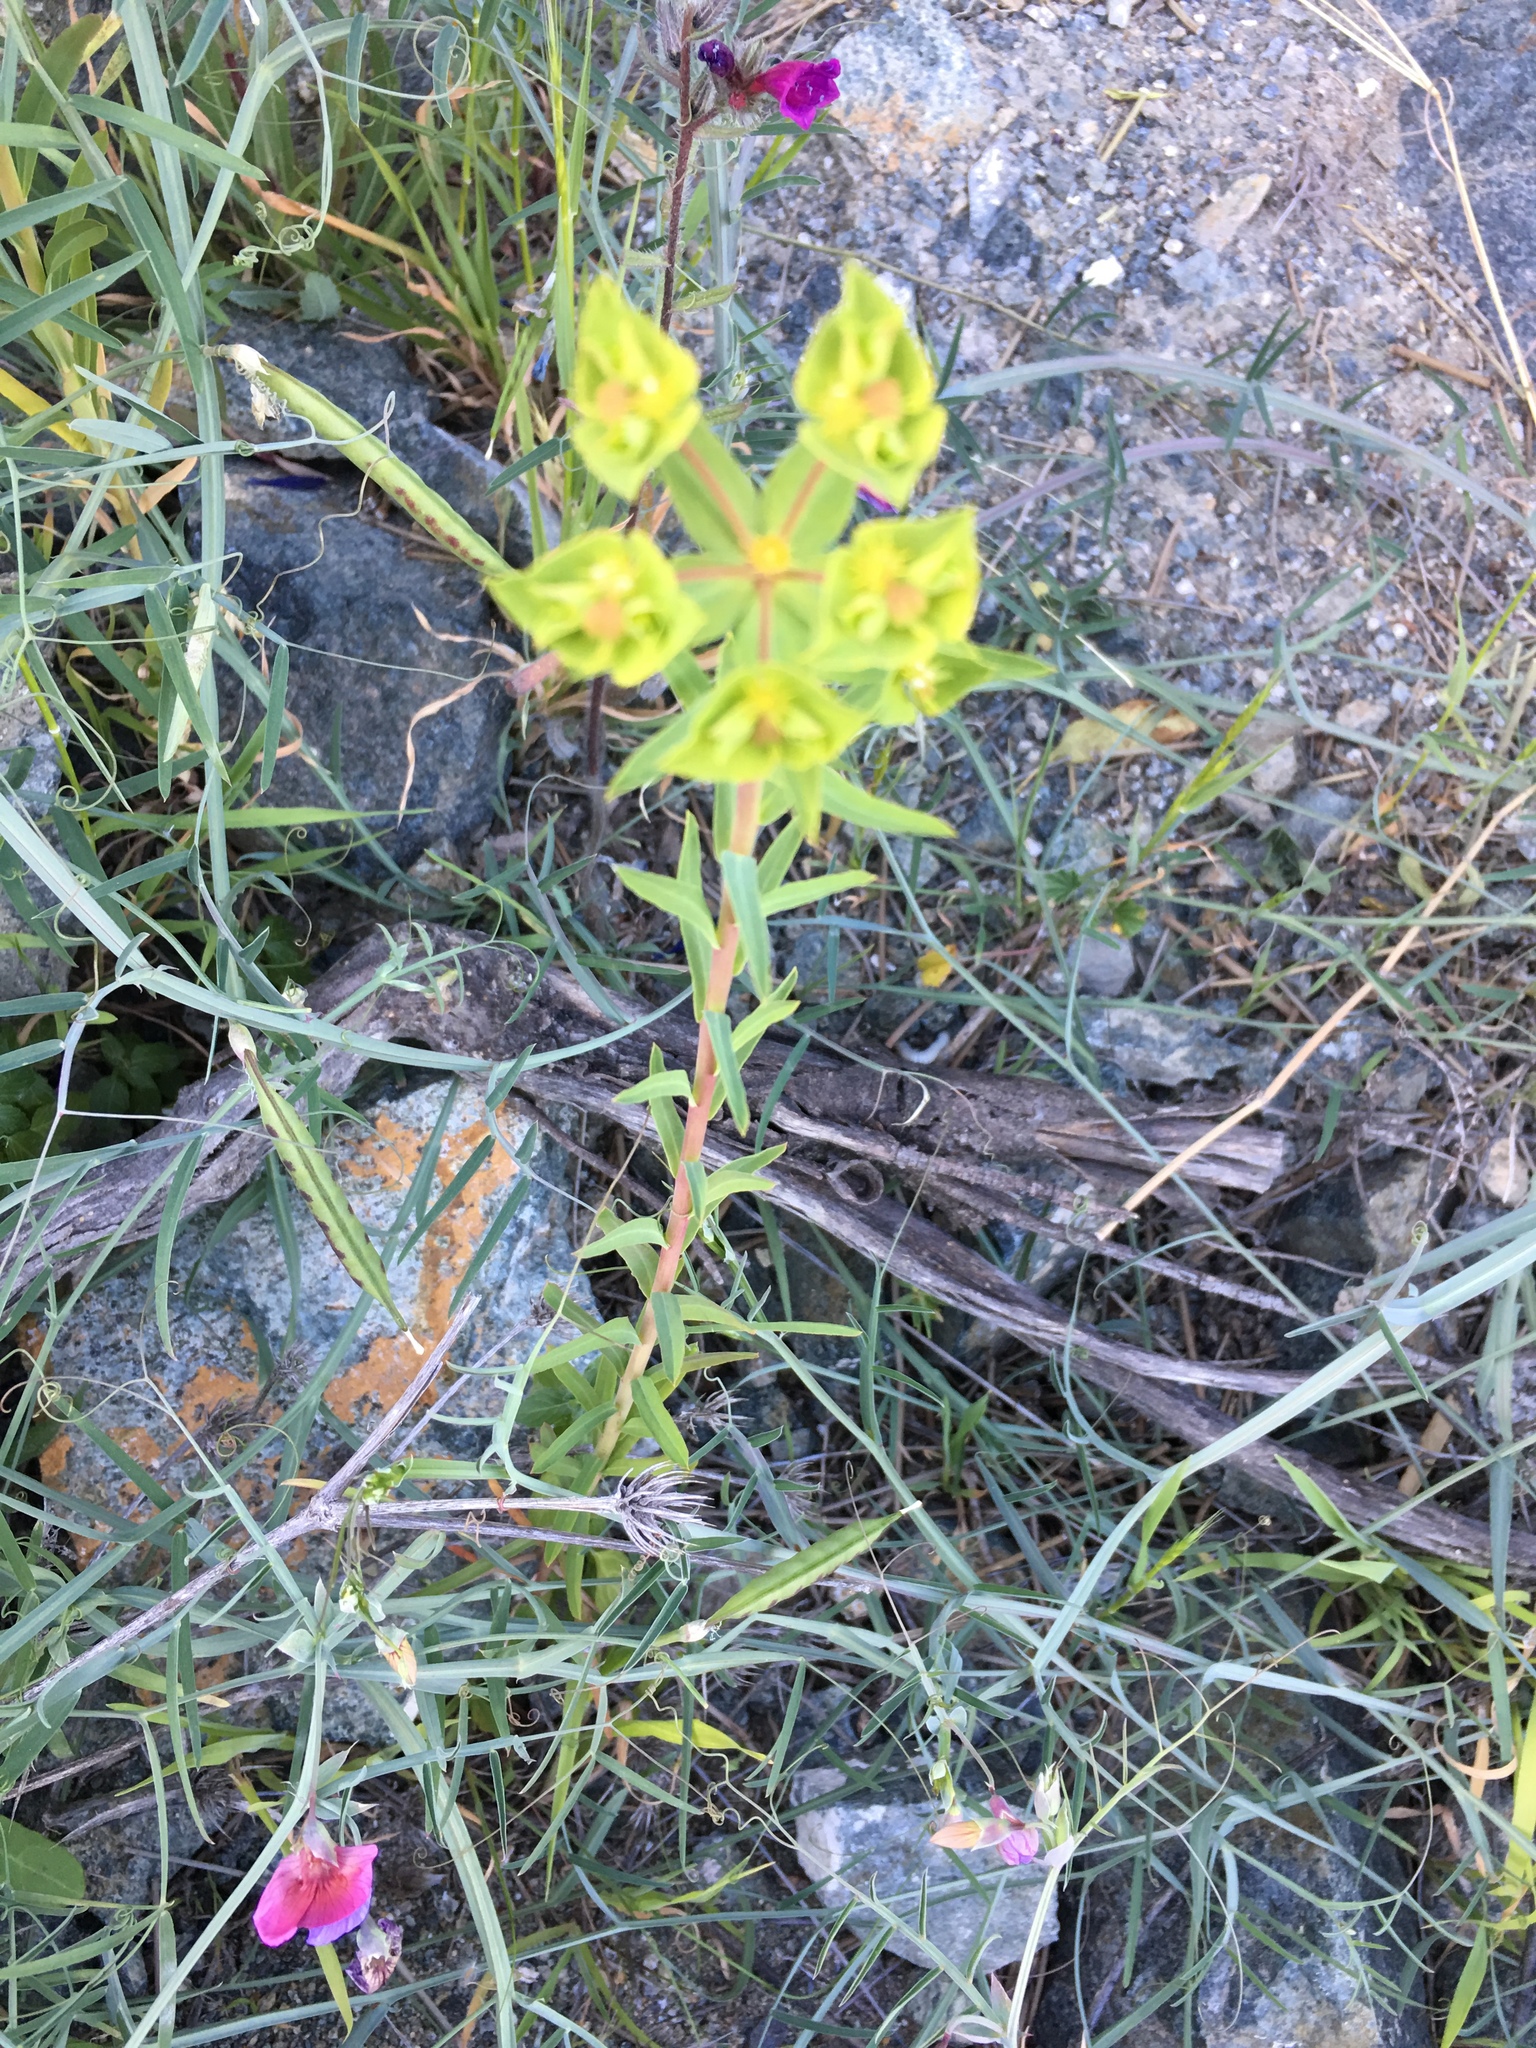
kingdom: Plantae
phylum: Tracheophyta
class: Magnoliopsida
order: Malpighiales
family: Euphorbiaceae
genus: Euphorbia
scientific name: Euphorbia terracina
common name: Geraldton carnation weed
